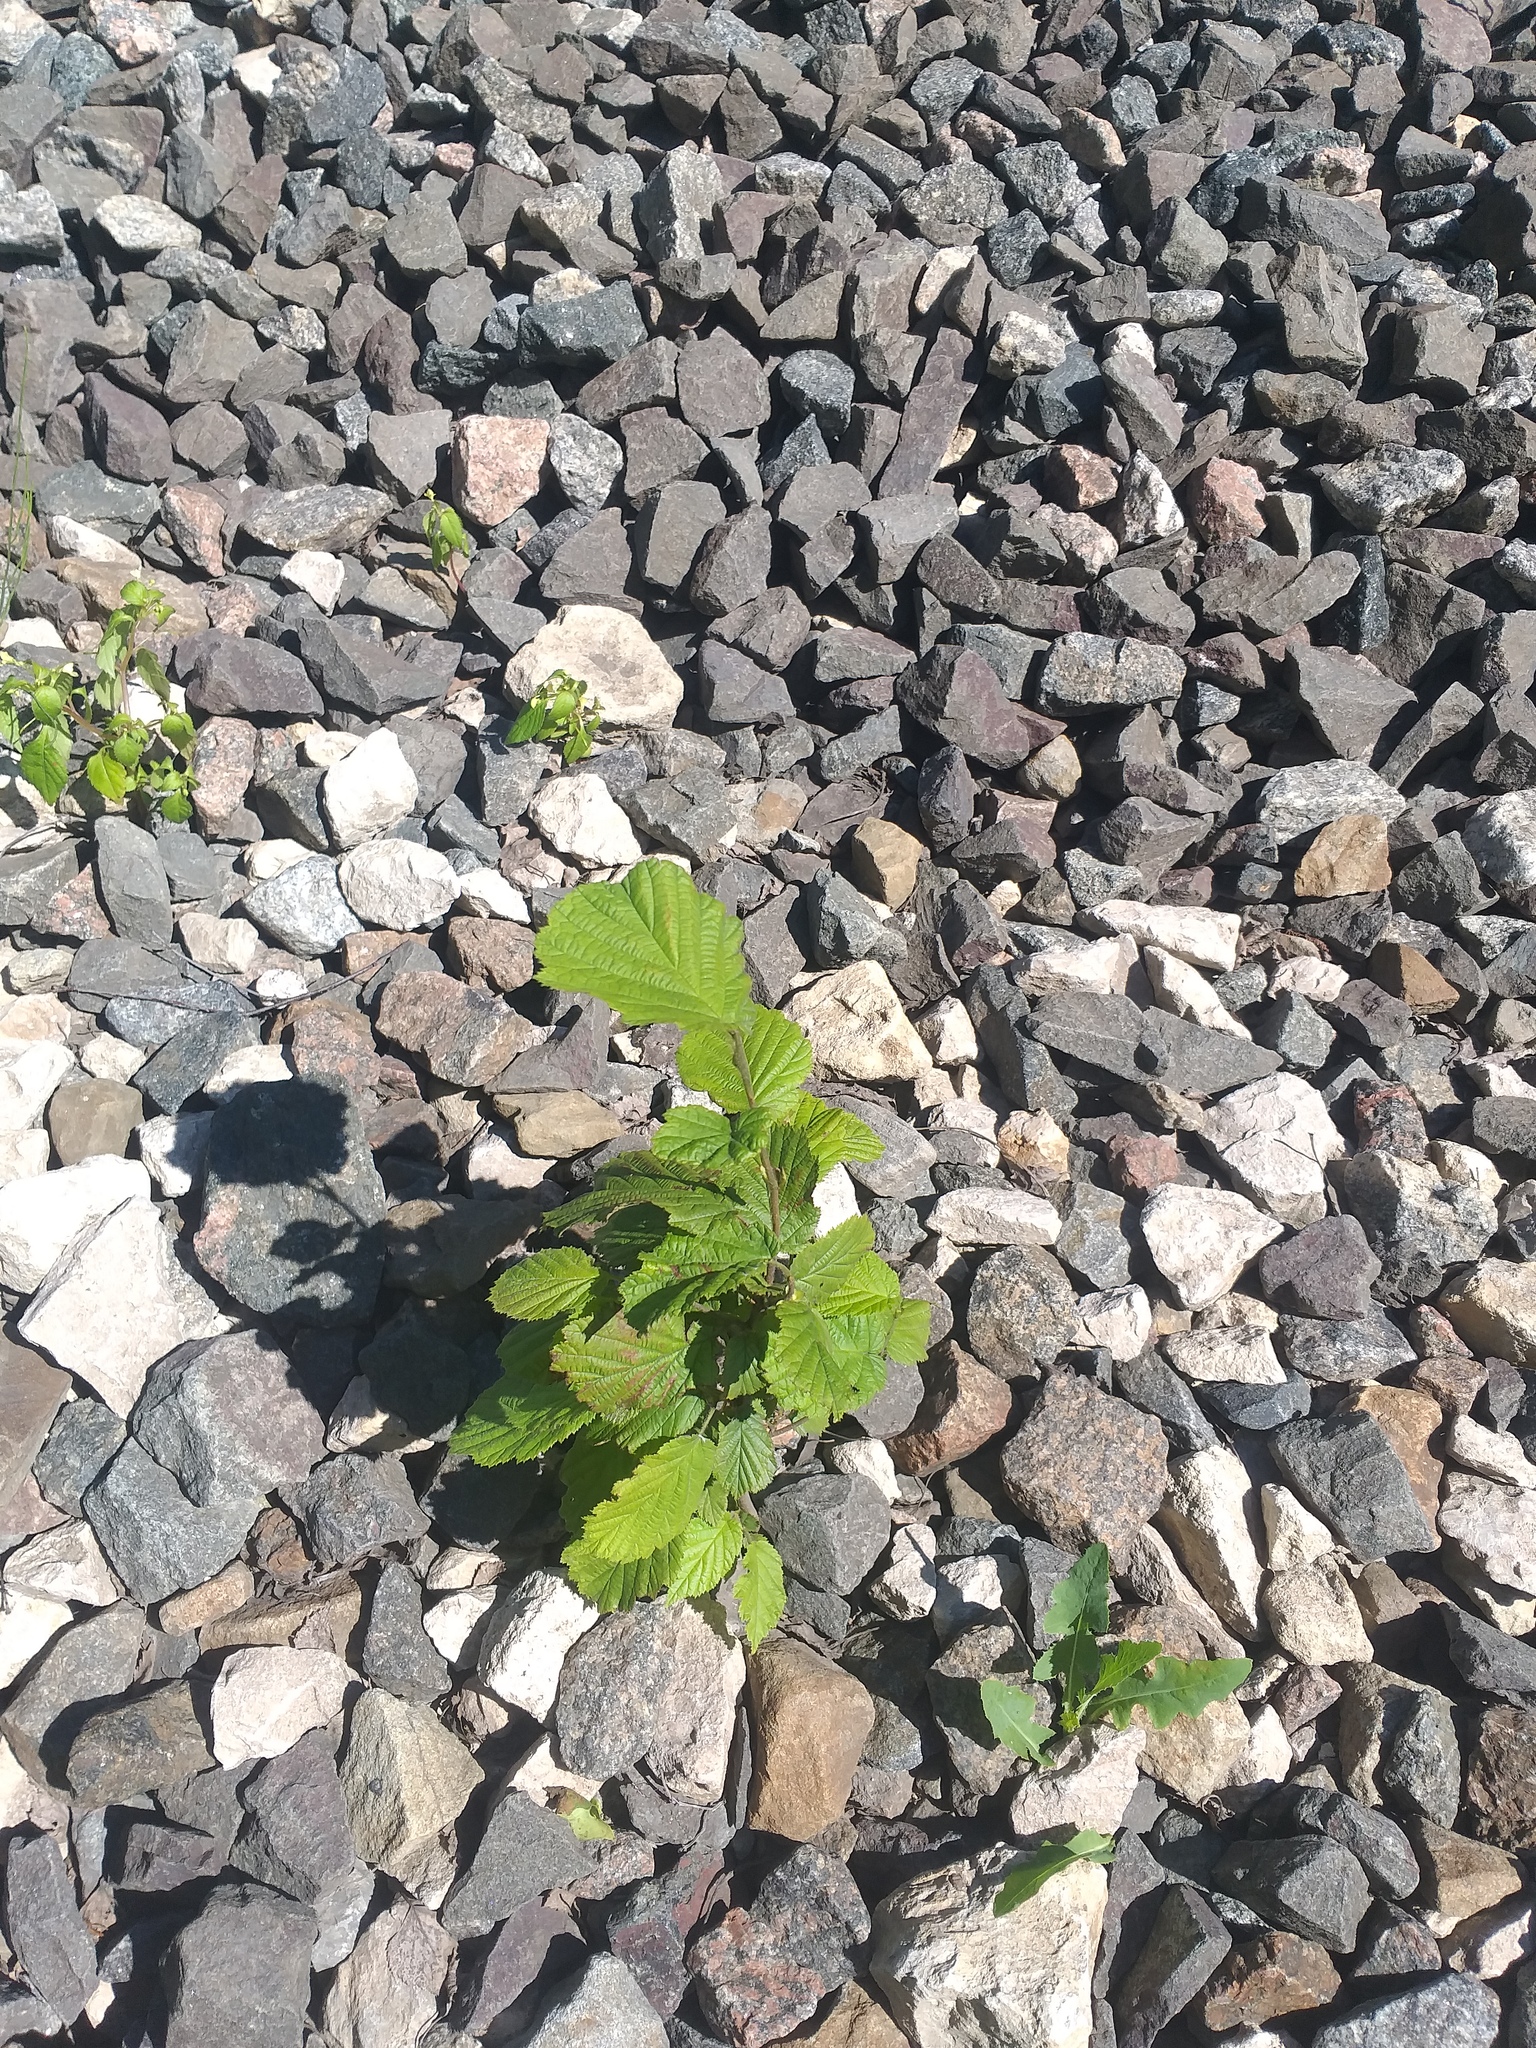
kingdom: Plantae
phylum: Tracheophyta
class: Magnoliopsida
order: Fagales
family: Betulaceae
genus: Corylus
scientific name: Corylus avellana
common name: European hazel
